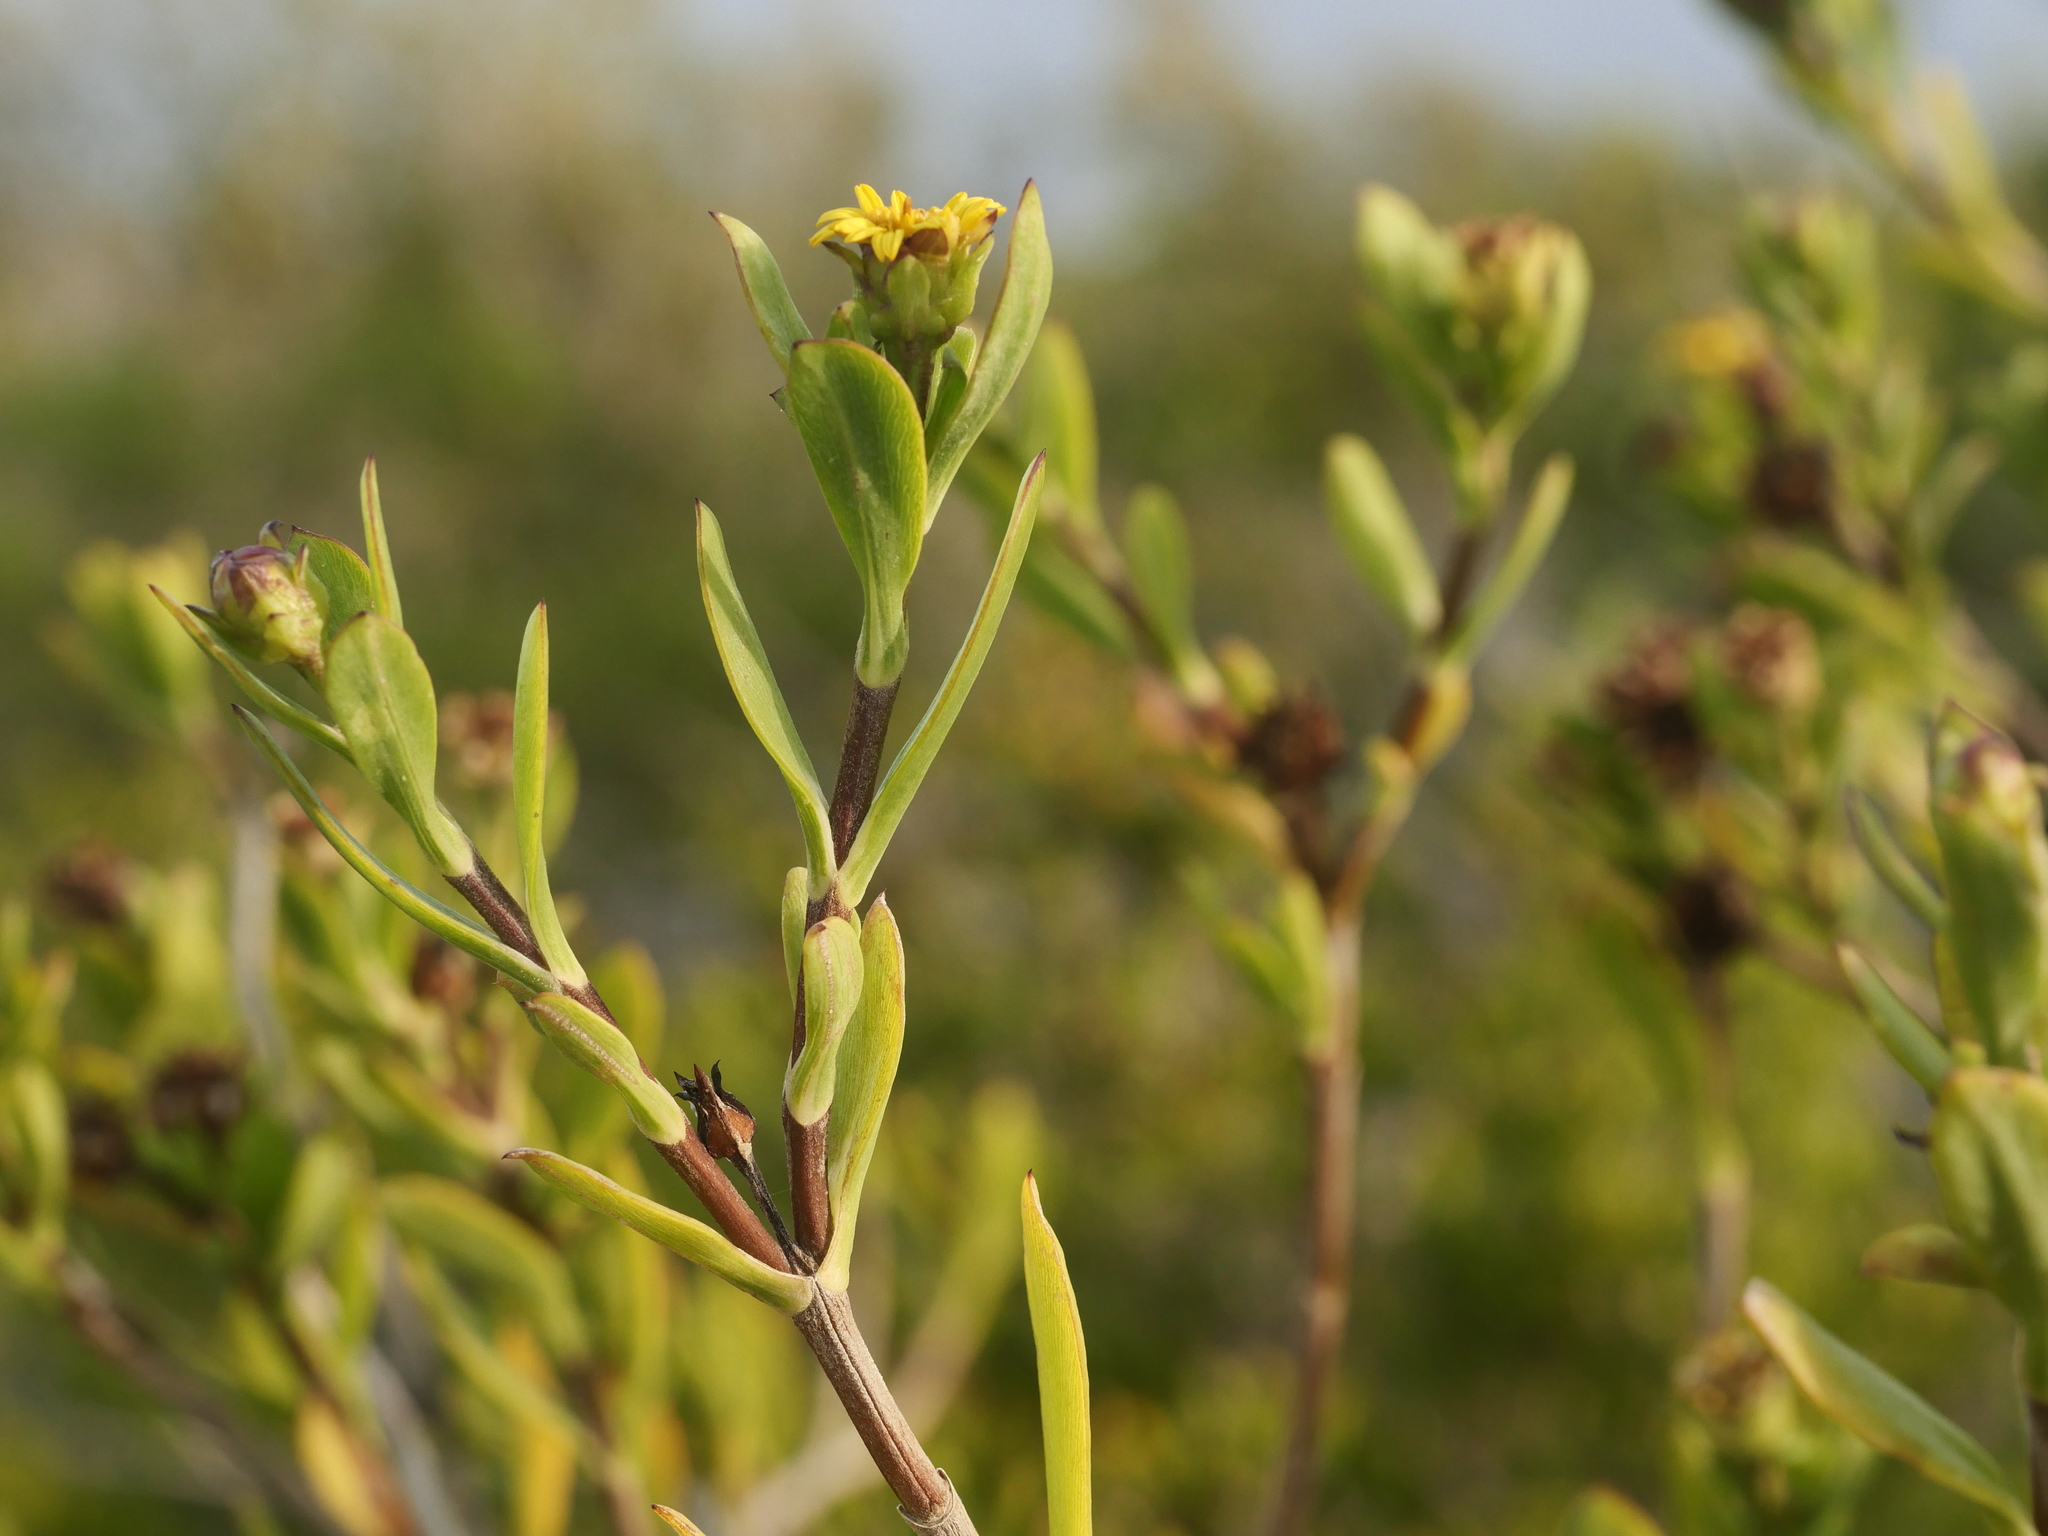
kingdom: Plantae
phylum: Tracheophyta
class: Magnoliopsida
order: Asterales
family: Asteraceae
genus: Borrichia
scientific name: Borrichia arborescens
